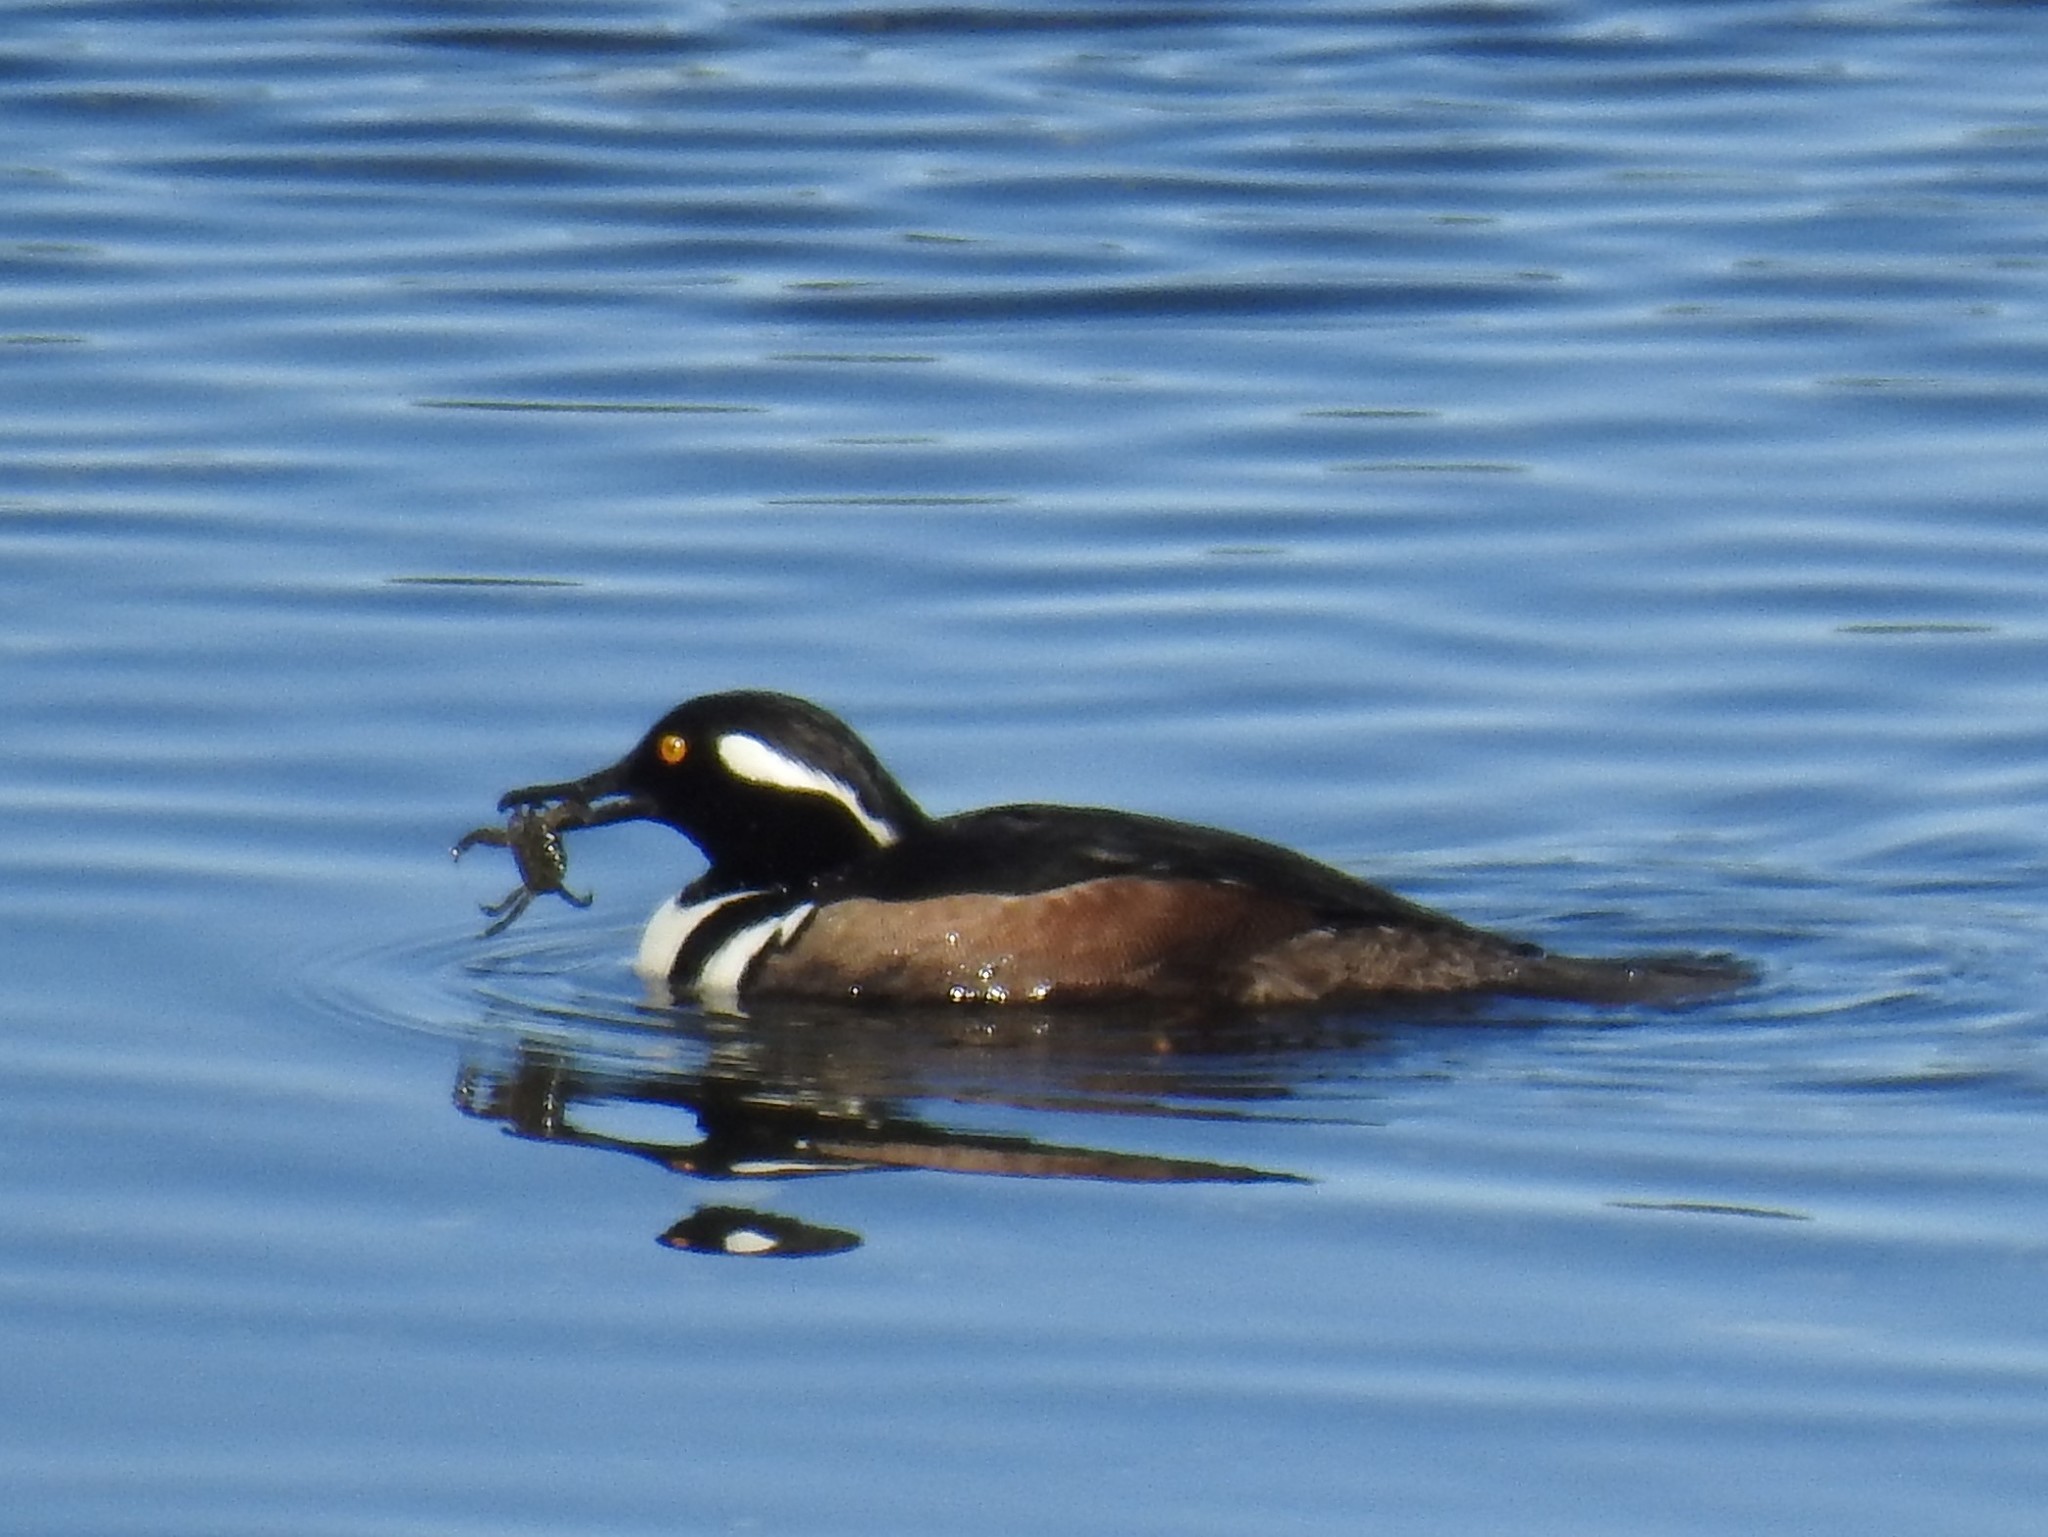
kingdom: Animalia
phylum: Chordata
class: Aves
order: Anseriformes
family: Anatidae
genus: Lophodytes
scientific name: Lophodytes cucullatus
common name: Hooded merganser
